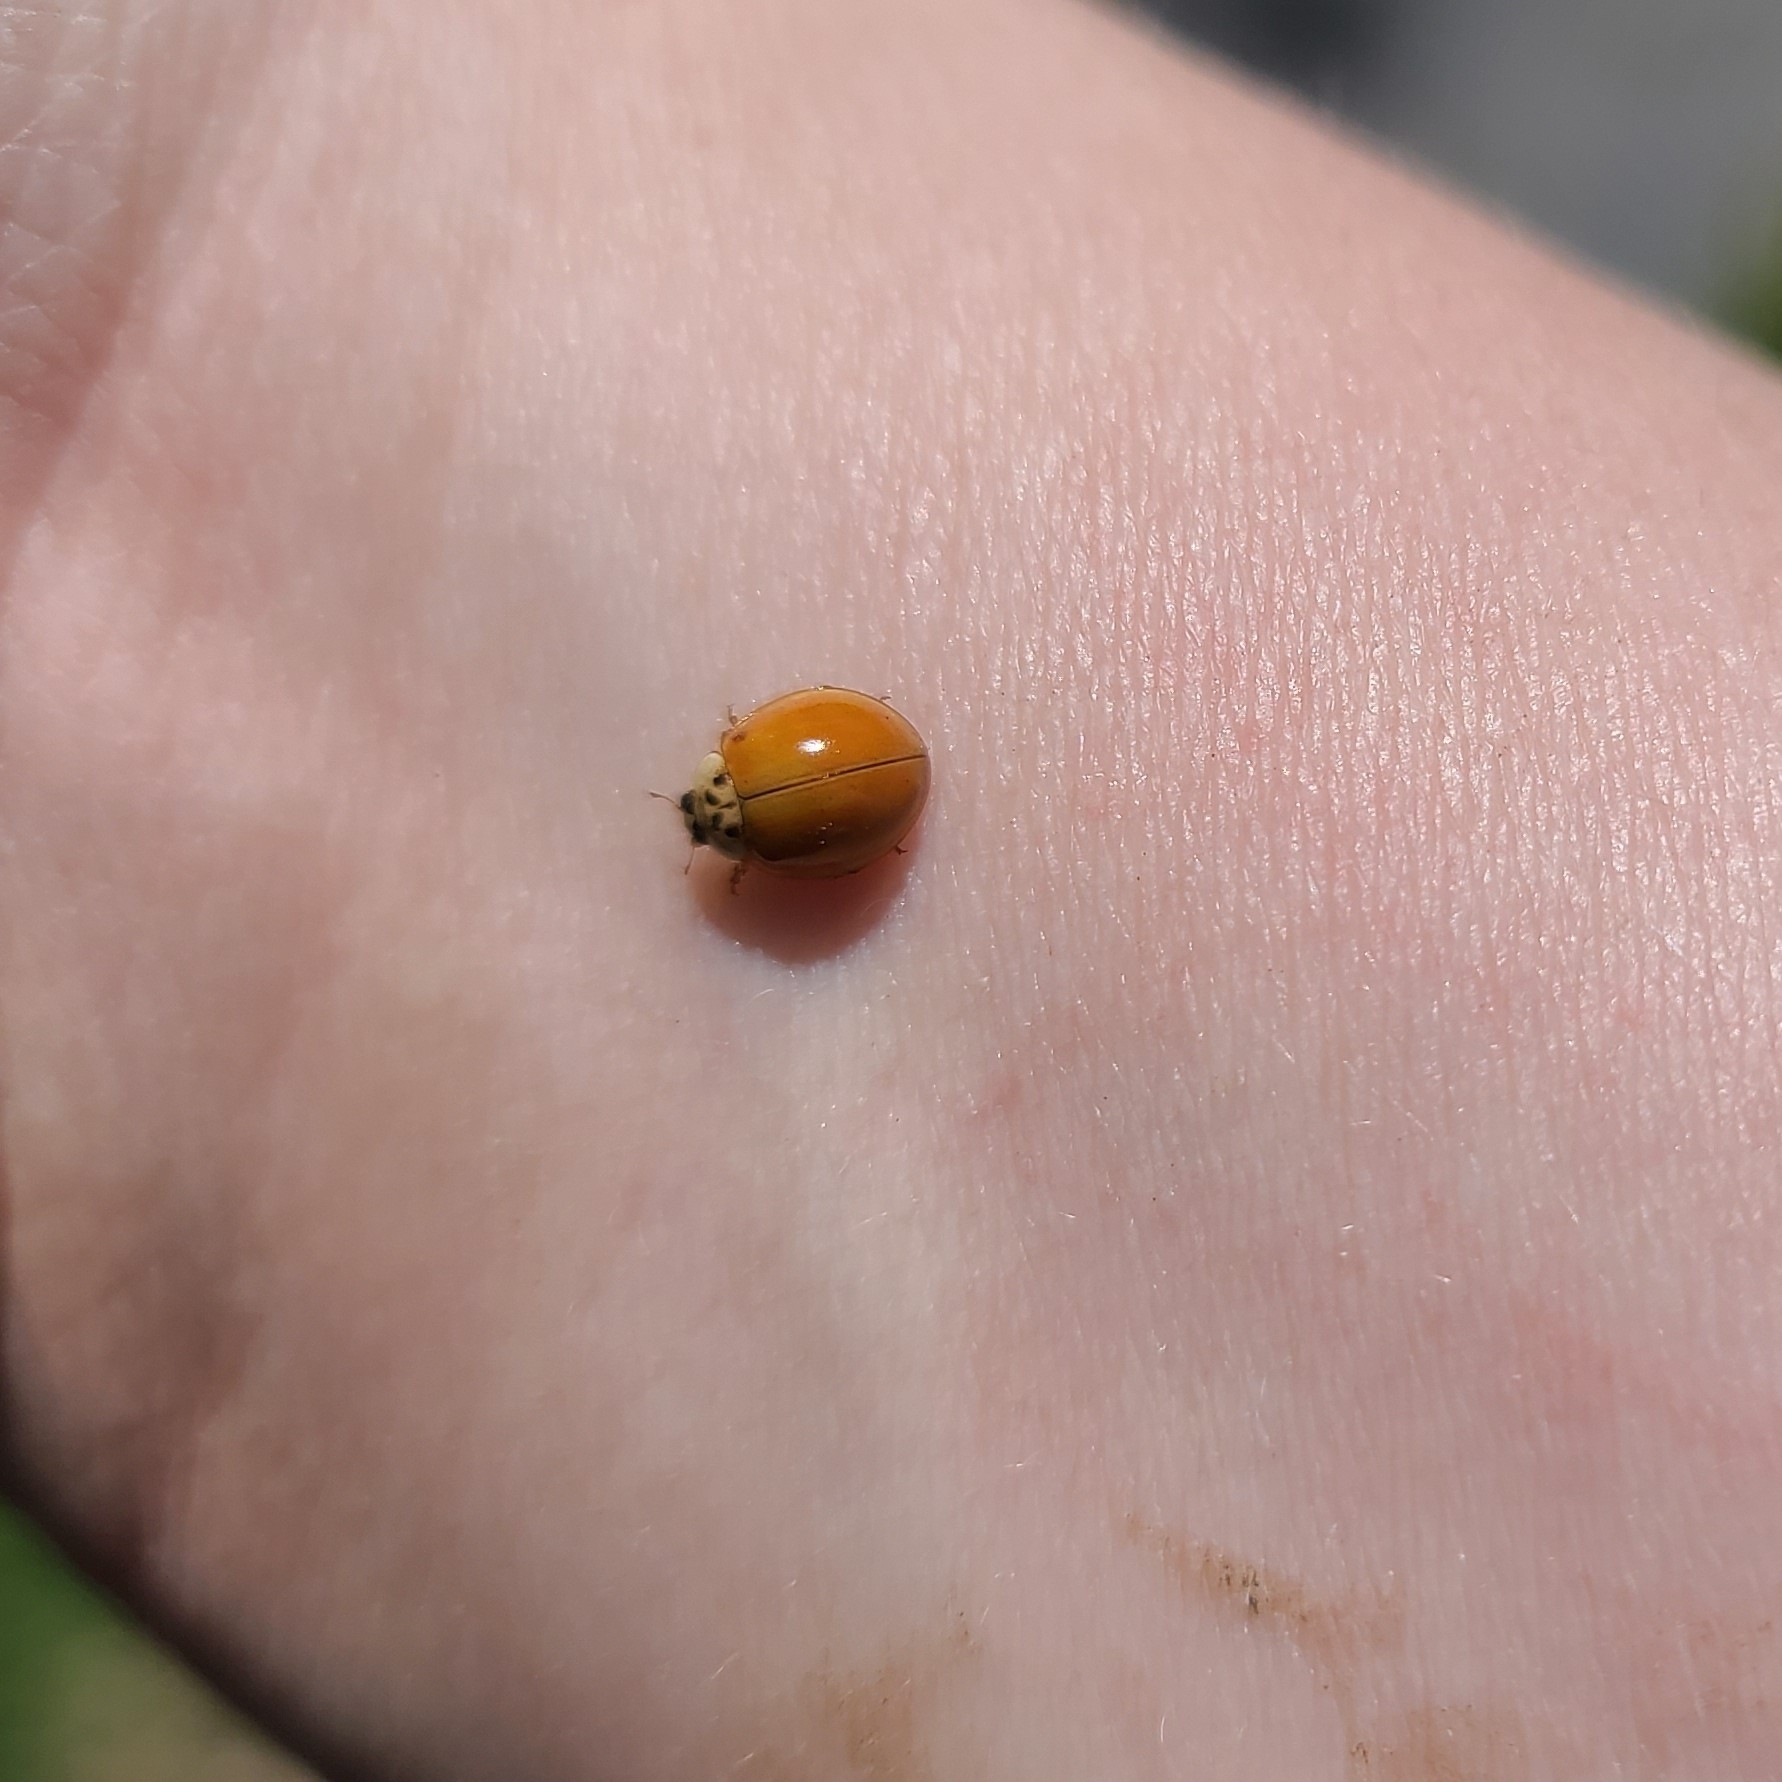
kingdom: Animalia
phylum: Arthropoda
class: Insecta
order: Coleoptera
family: Coccinellidae
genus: Harmonia
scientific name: Harmonia axyridis
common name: Harlequin ladybird
